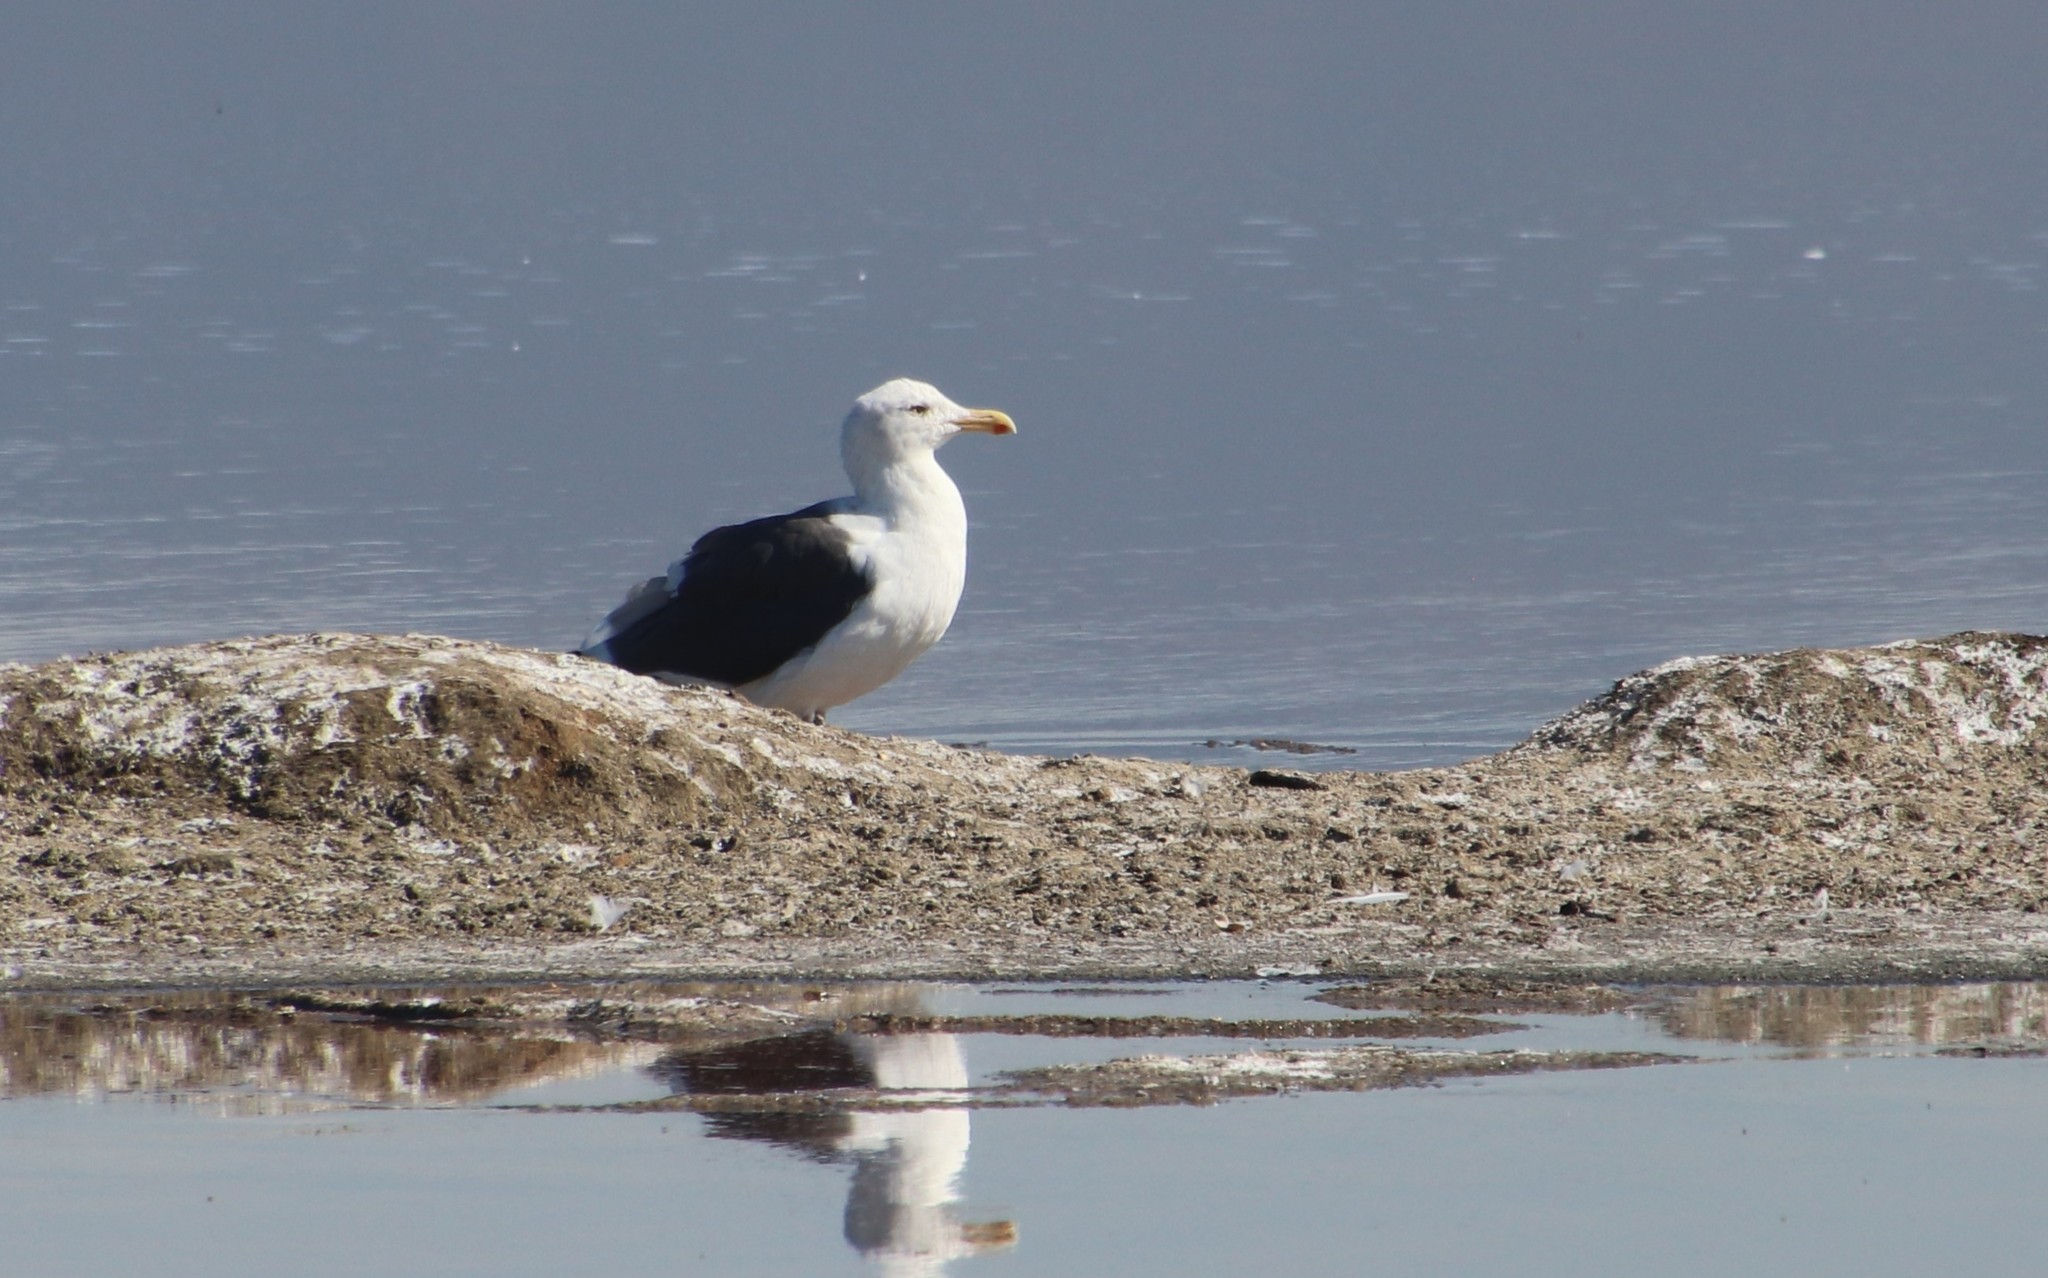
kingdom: Animalia
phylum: Chordata
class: Aves
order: Charadriiformes
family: Laridae
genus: Larus
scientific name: Larus occidentalis
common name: Western gull
